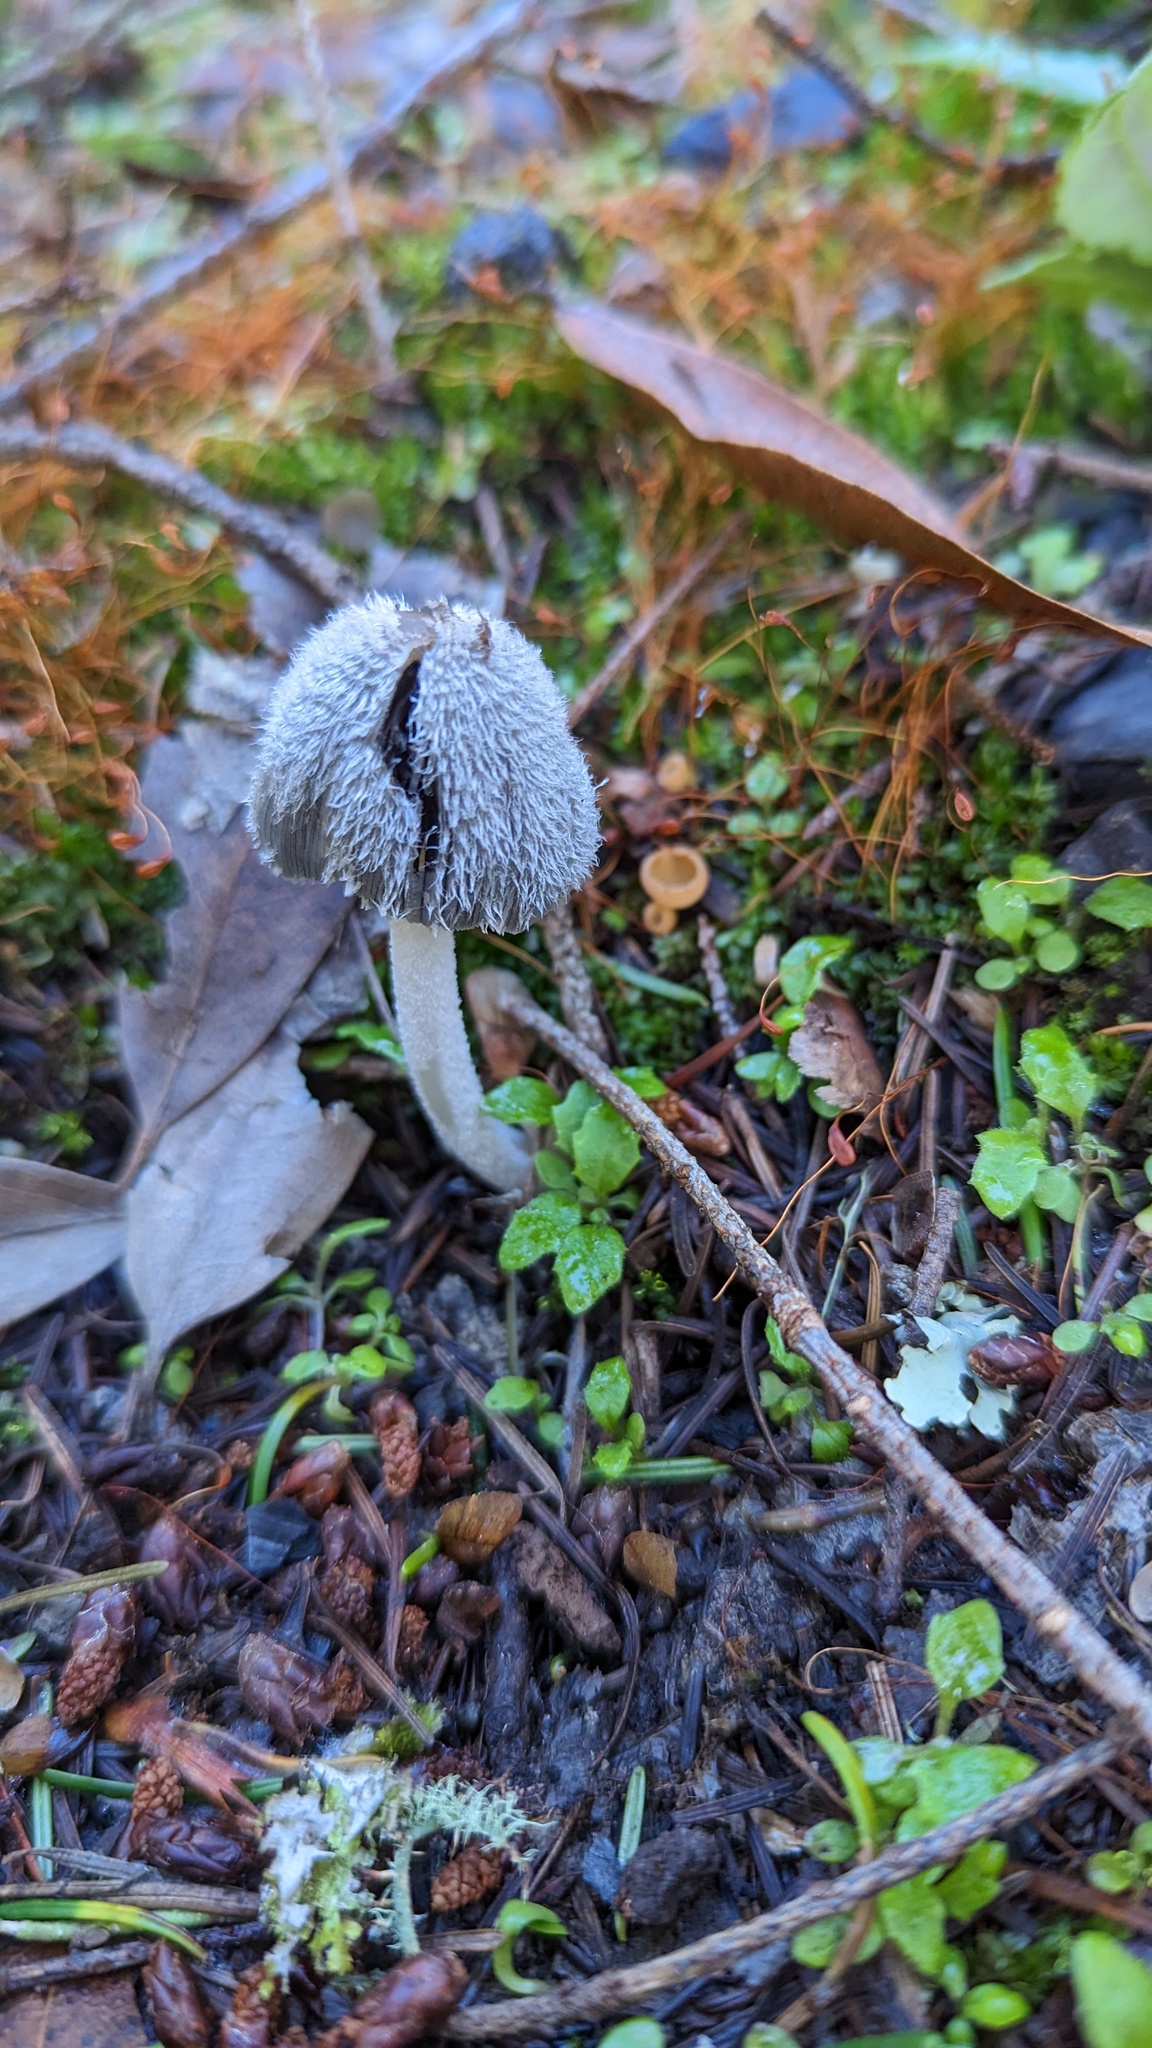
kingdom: Fungi
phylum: Basidiomycota
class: Agaricomycetes
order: Agaricales
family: Psathyrellaceae
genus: Coprinopsis
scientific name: Coprinopsis lagopus
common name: Hare'sfoot inkcap
